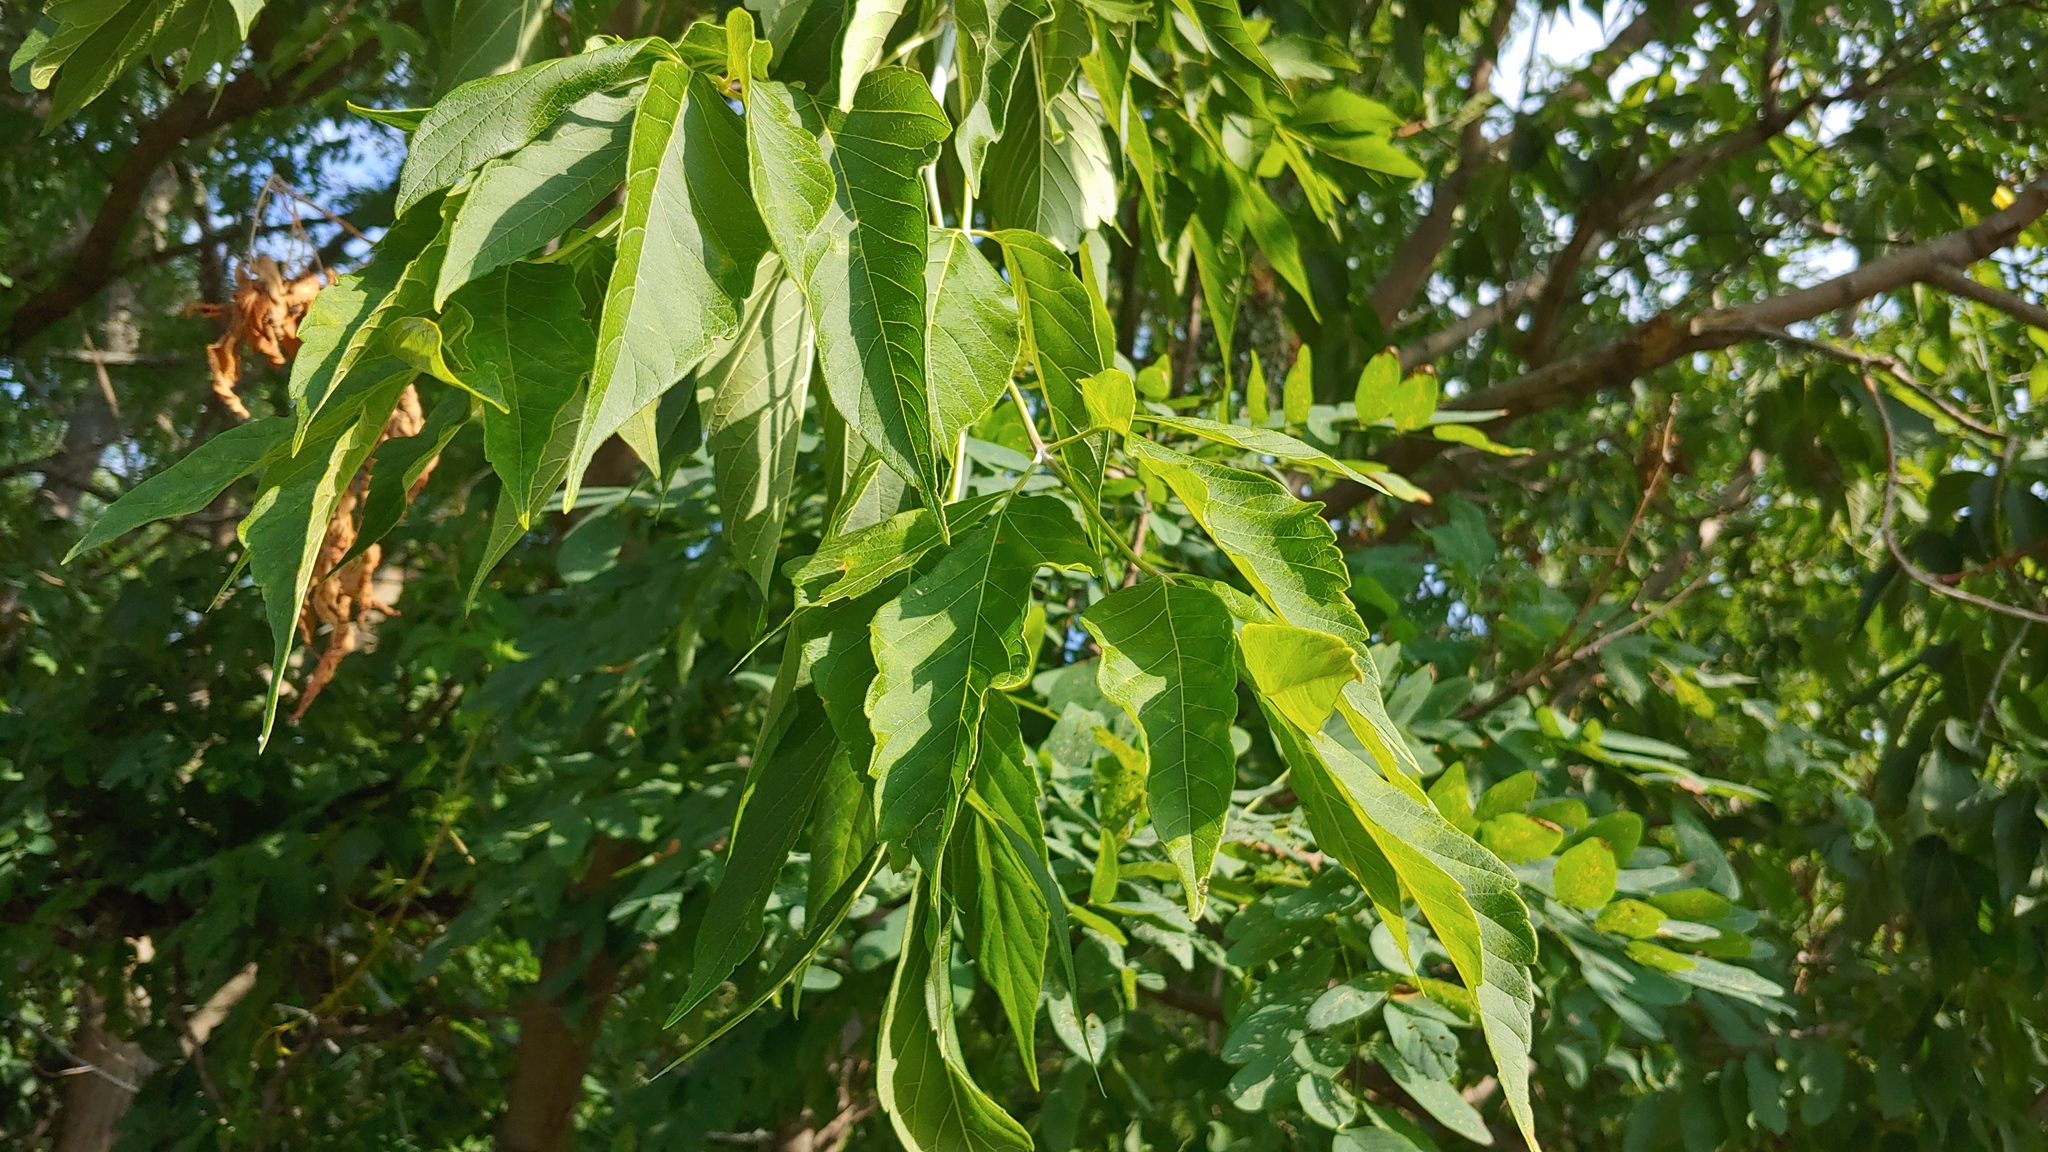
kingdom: Plantae
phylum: Tracheophyta
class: Magnoliopsida
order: Sapindales
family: Sapindaceae
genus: Acer
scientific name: Acer negundo
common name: Ashleaf maple
